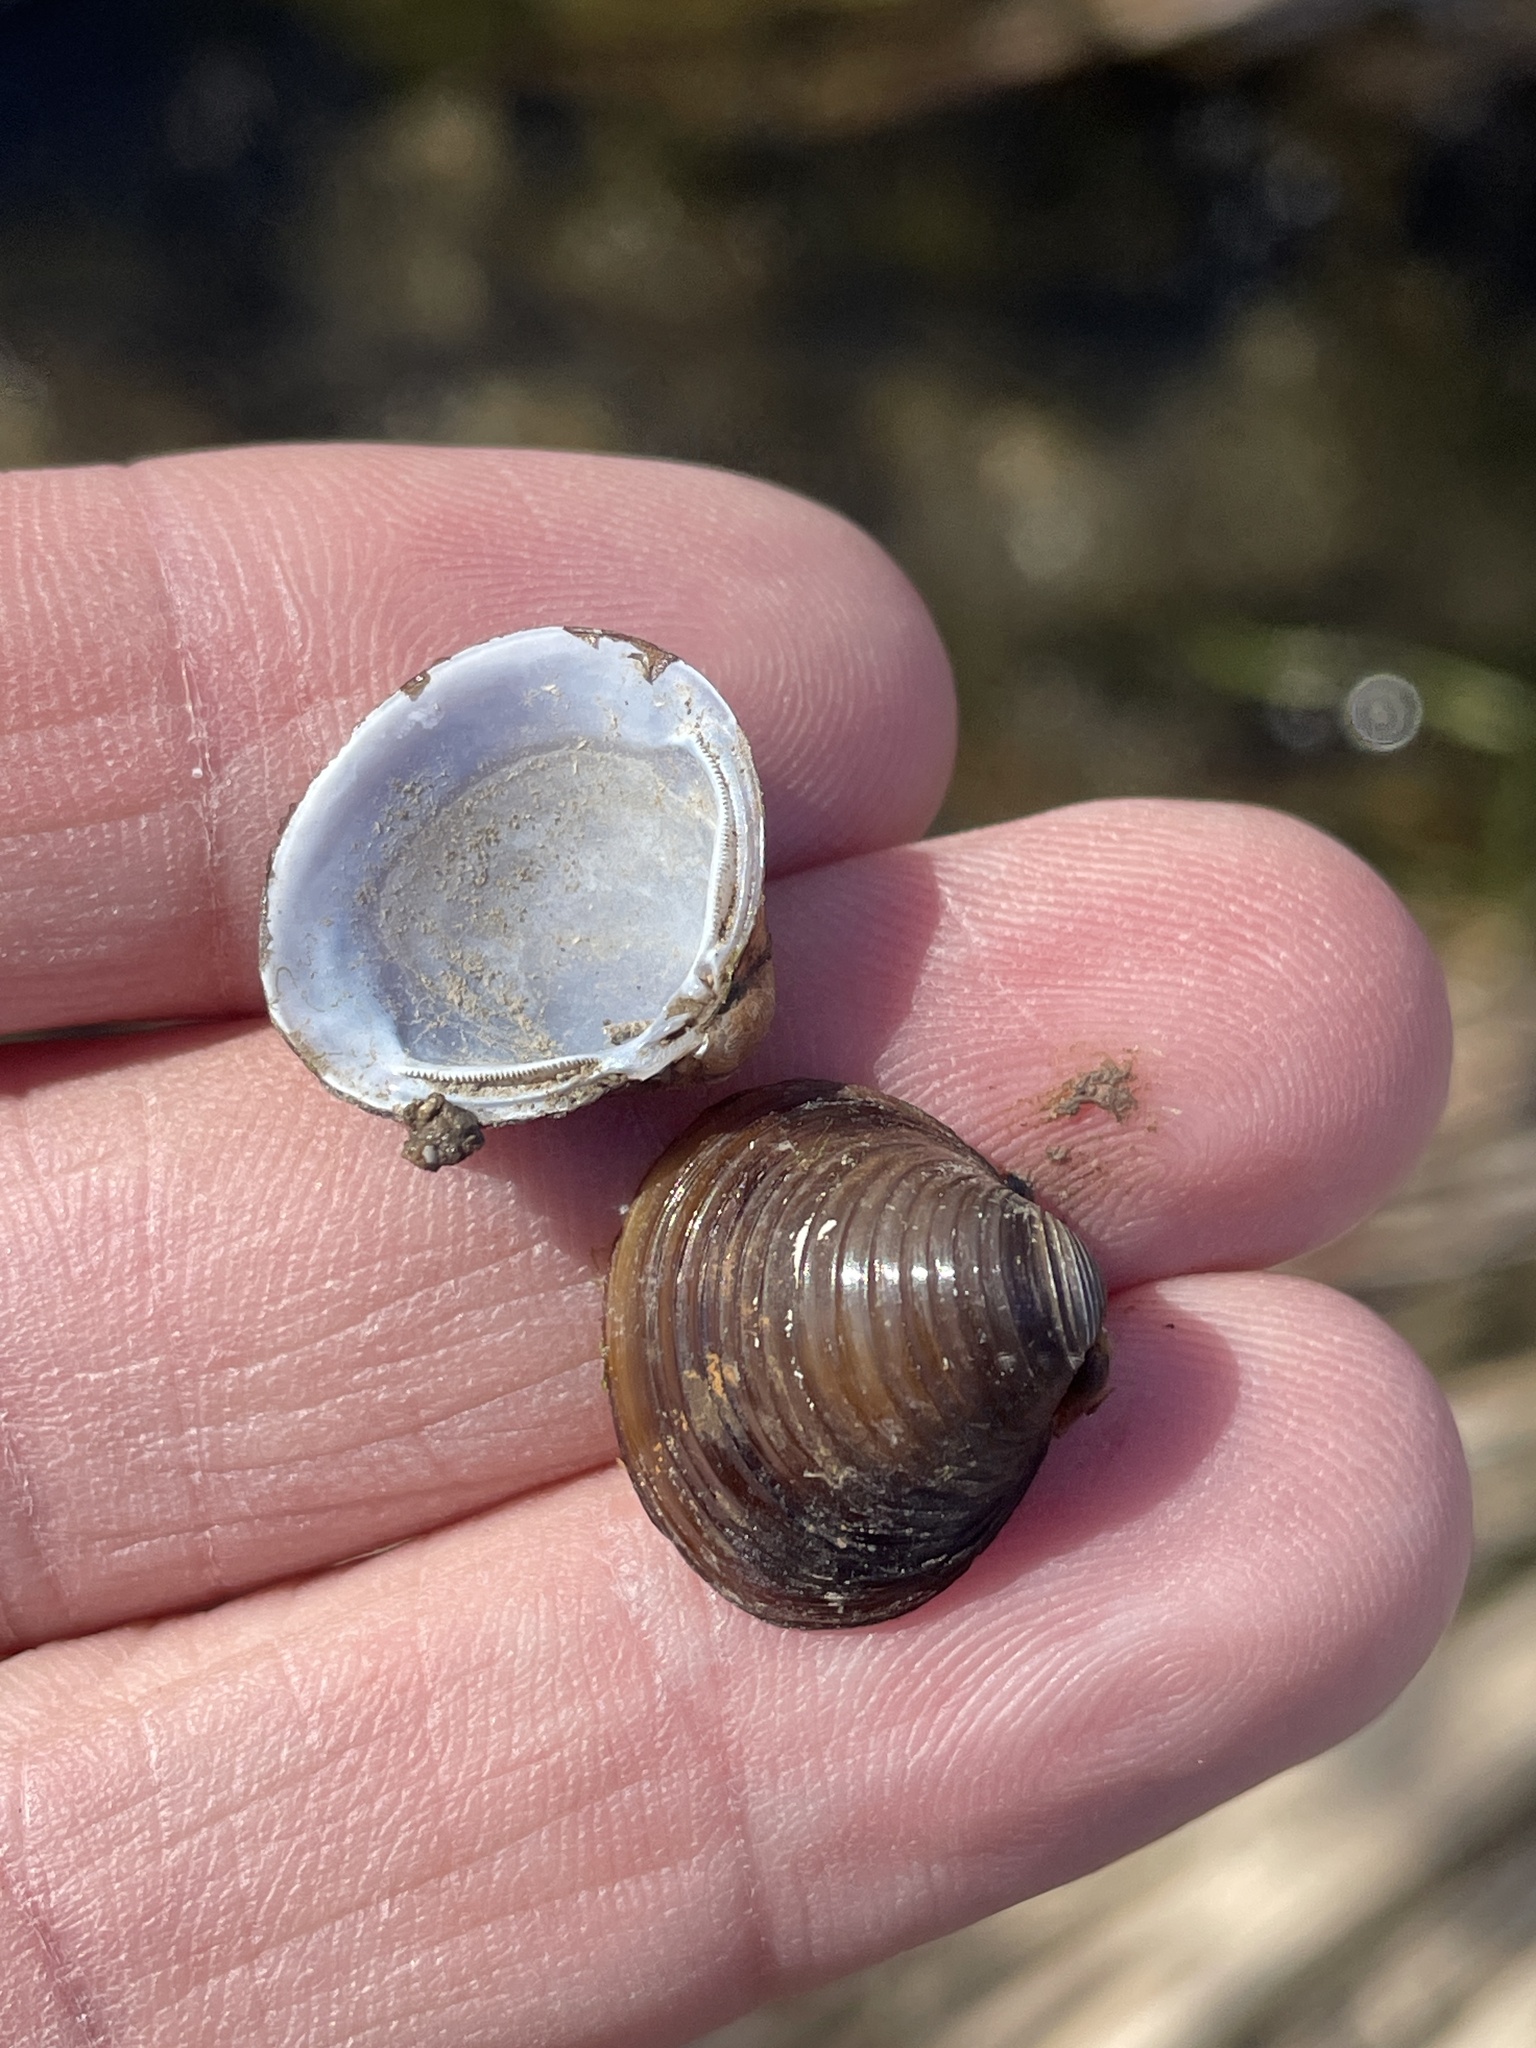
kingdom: Animalia
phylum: Mollusca
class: Bivalvia
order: Venerida
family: Cyrenidae
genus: Corbicula
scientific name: Corbicula fluminea
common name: Asian clam
